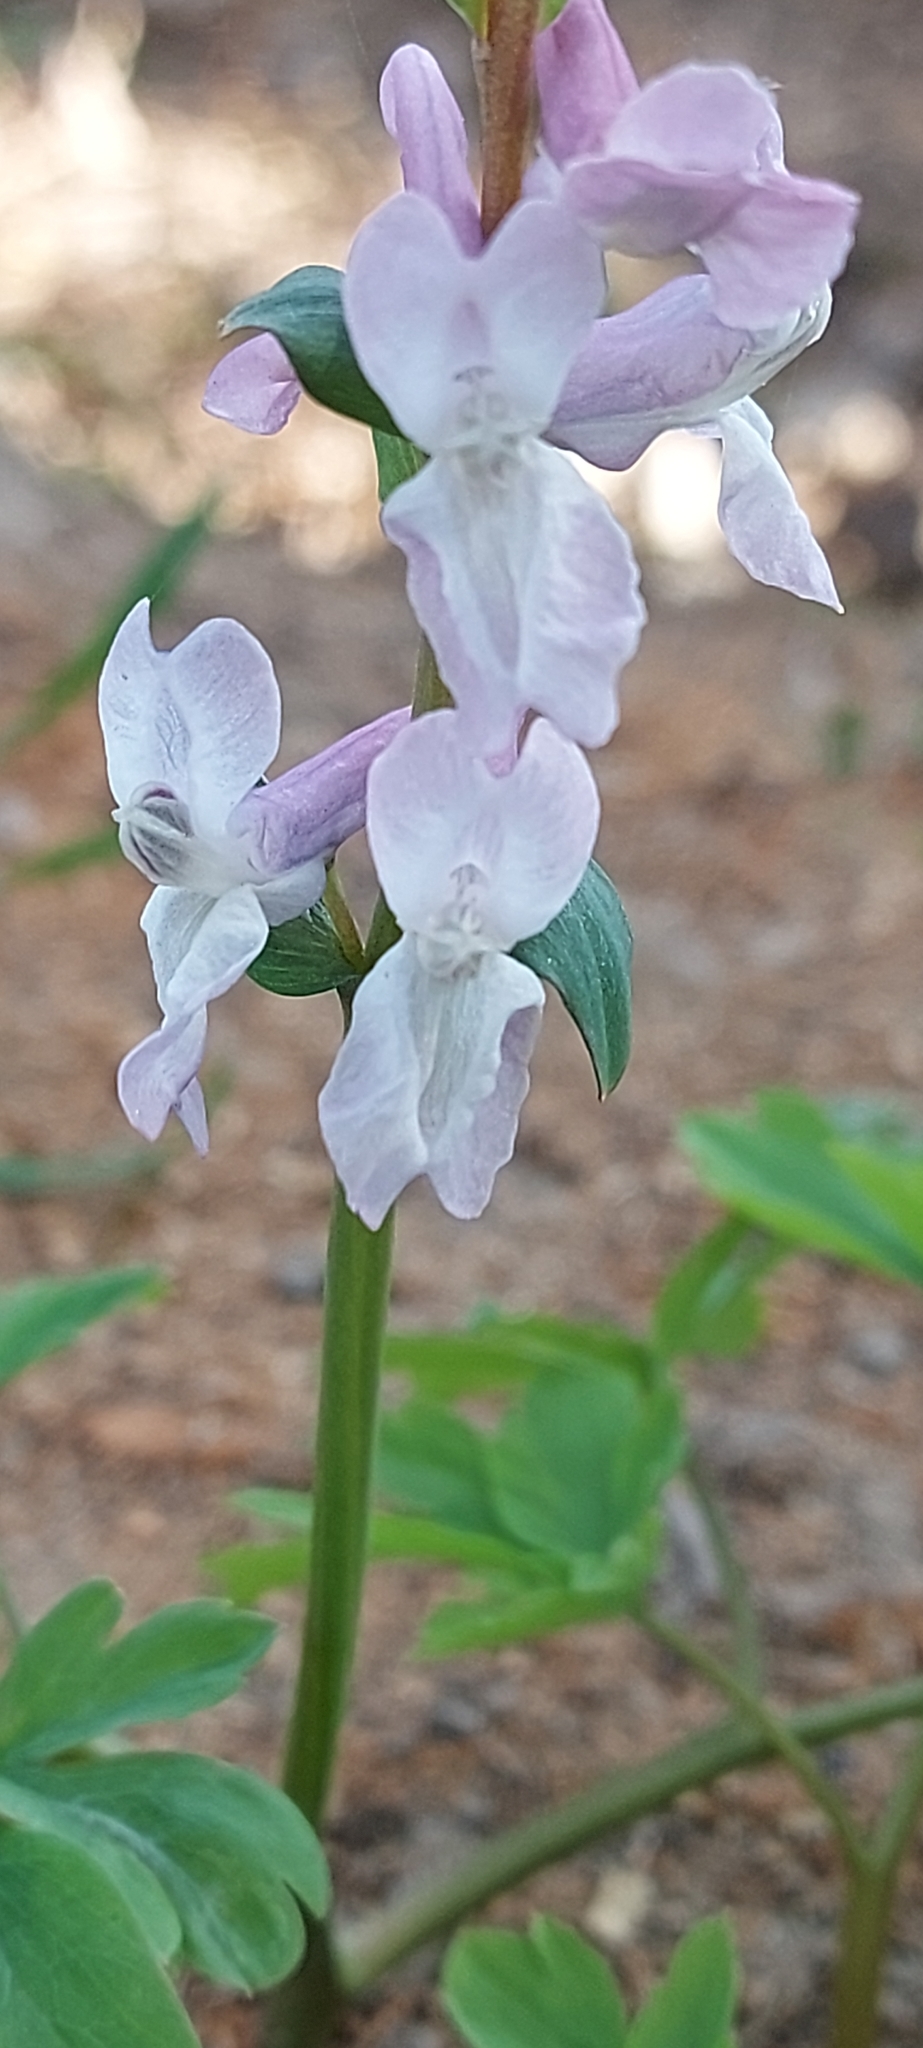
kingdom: Plantae
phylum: Tracheophyta
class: Magnoliopsida
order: Ranunculales
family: Papaveraceae
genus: Corydalis
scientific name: Corydalis cava
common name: Hollowroot
